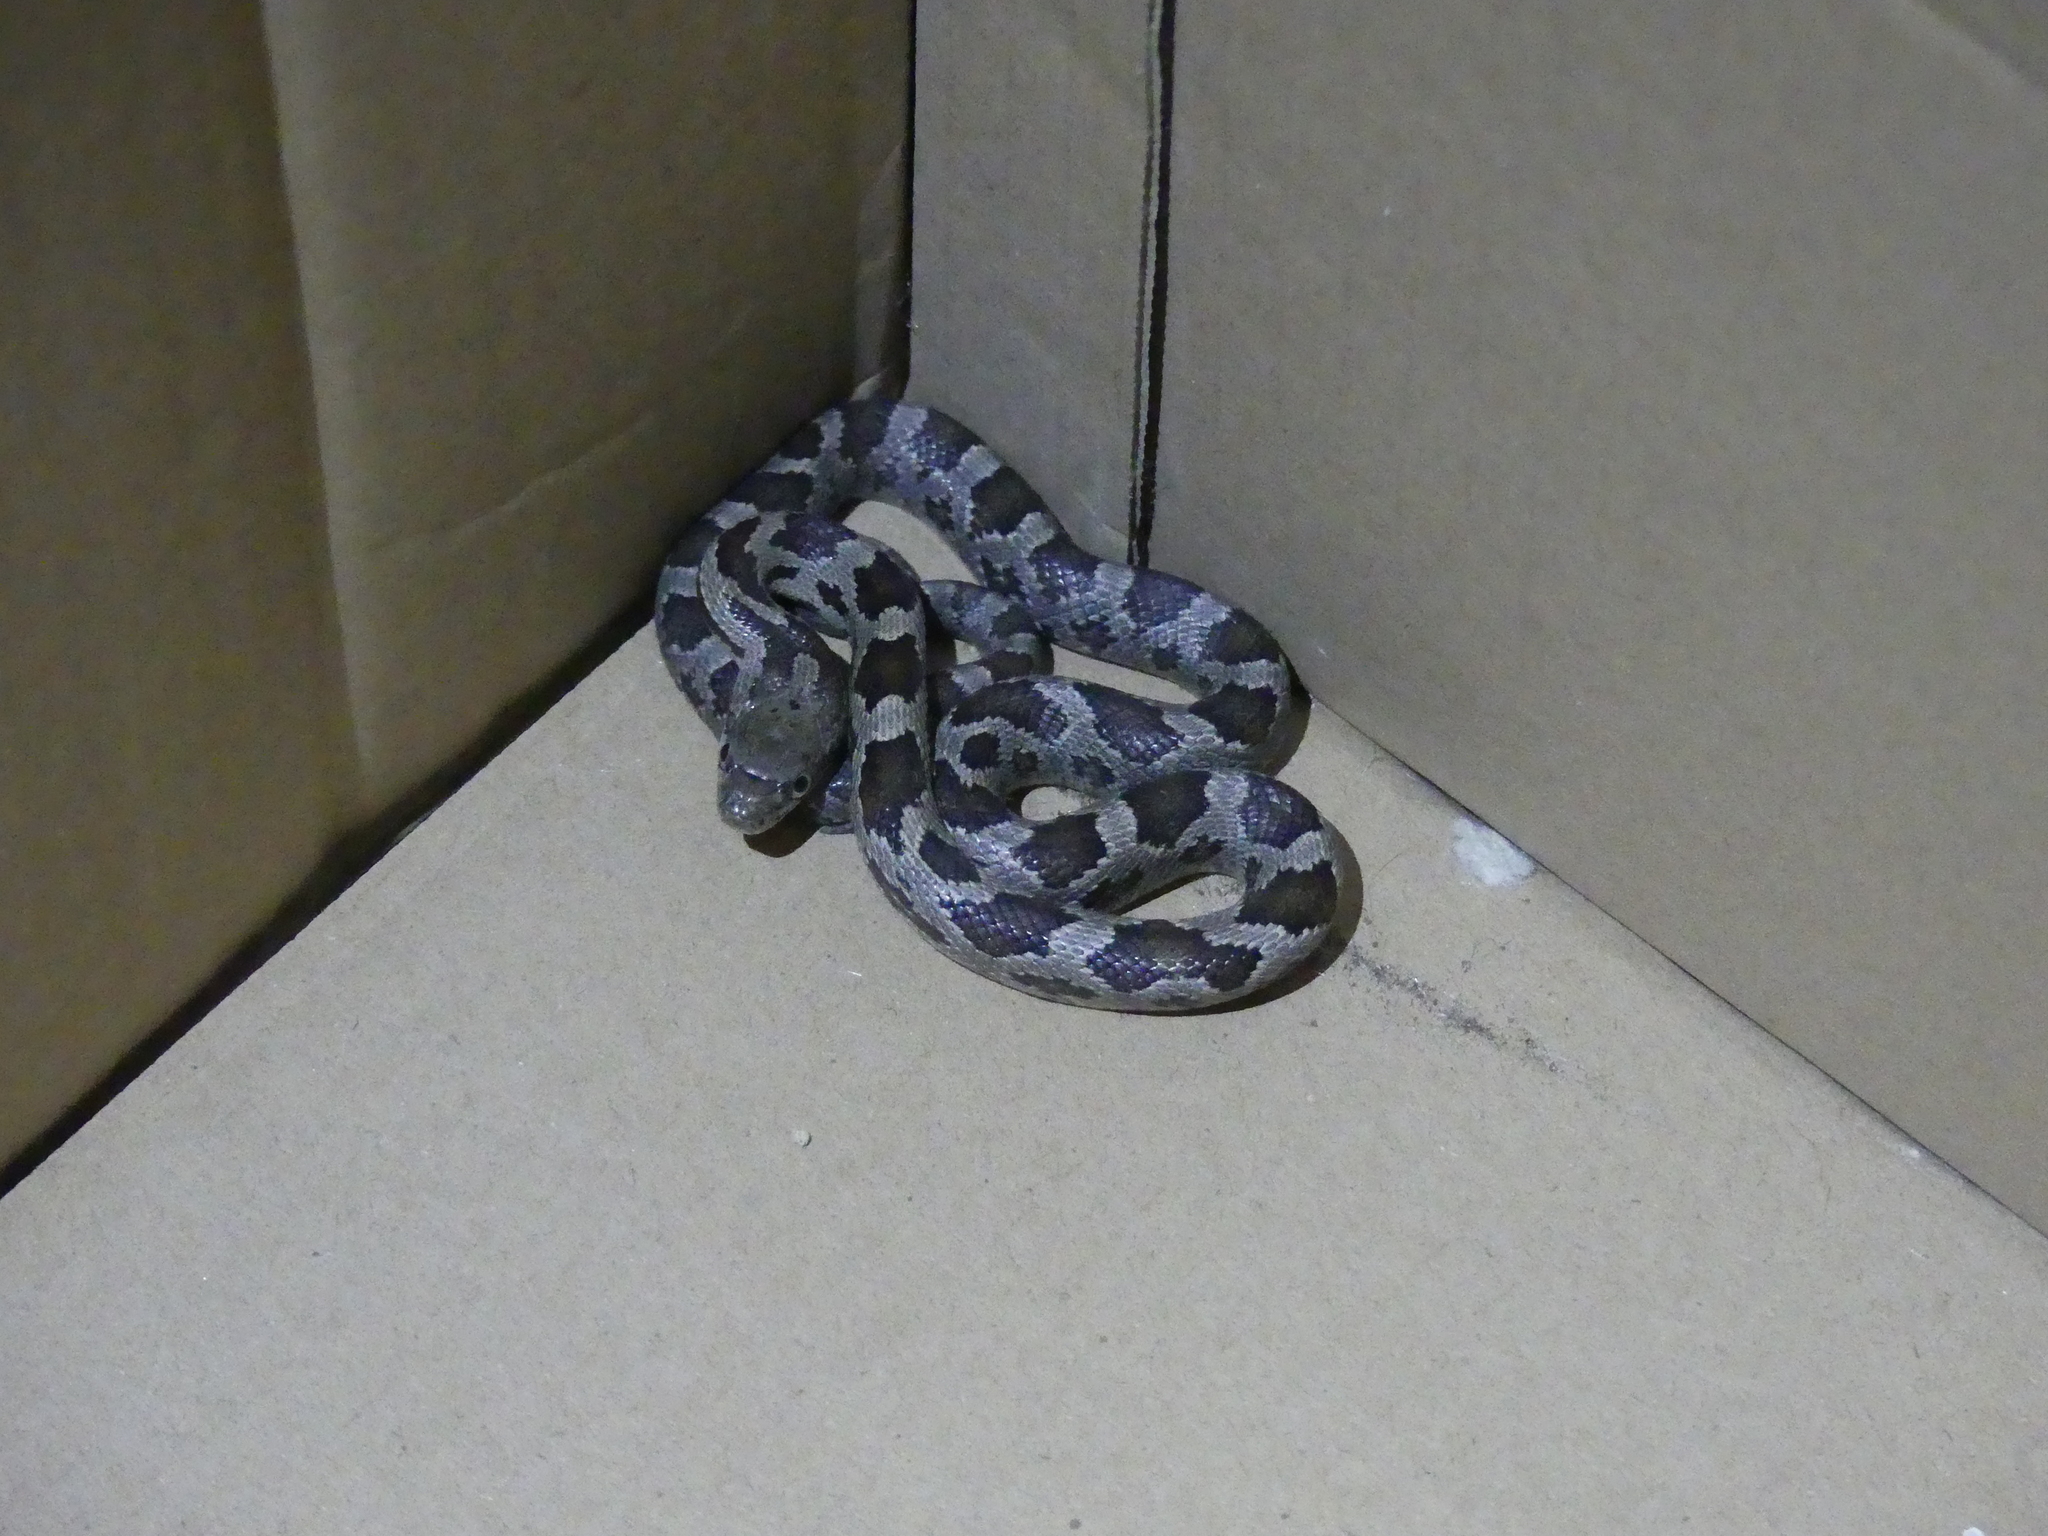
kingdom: Animalia
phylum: Chordata
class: Squamata
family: Colubridae
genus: Pantherophis
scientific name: Pantherophis alleghaniensis
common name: Eastern rat snake
